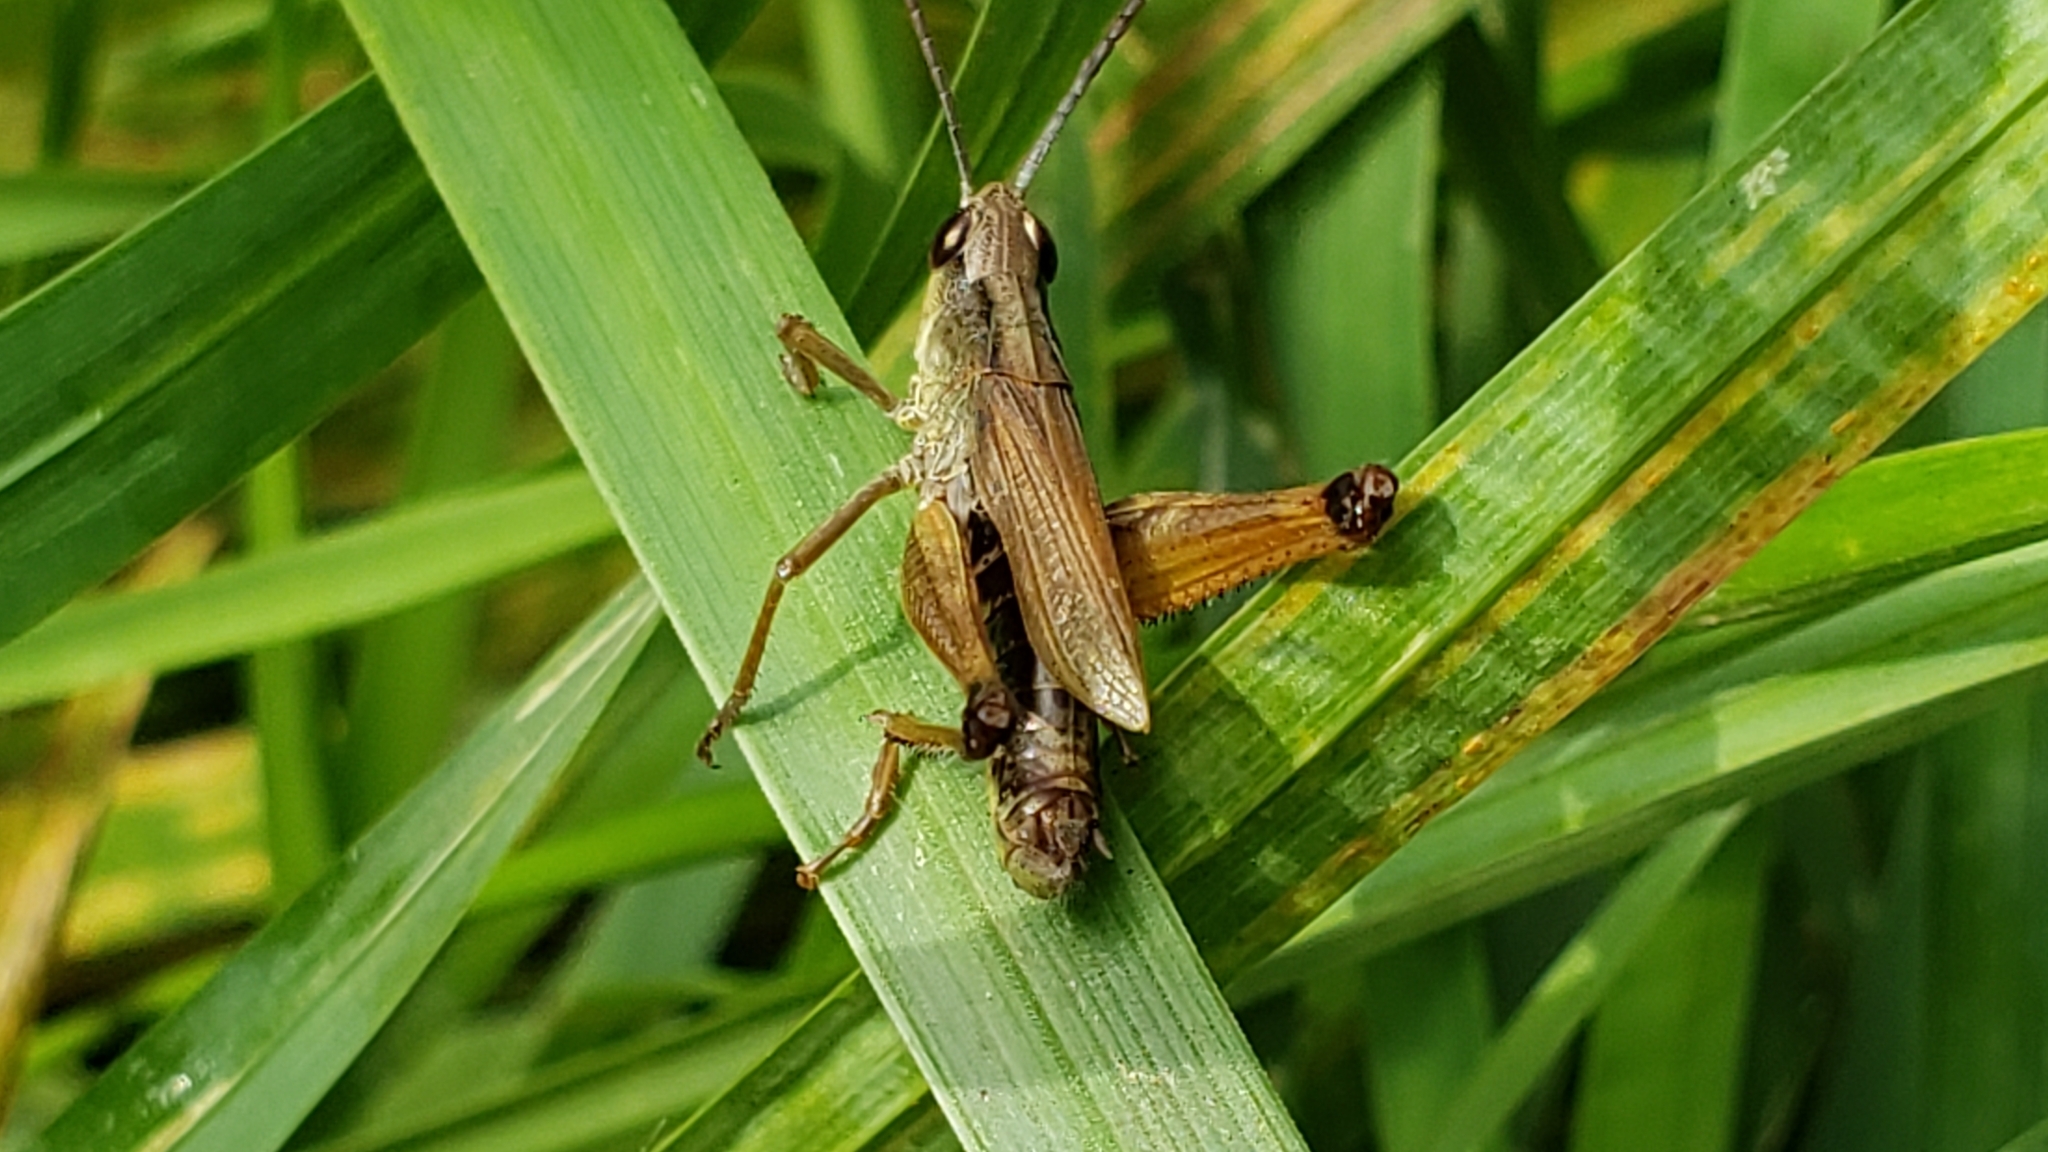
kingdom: Animalia
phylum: Arthropoda
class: Insecta
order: Orthoptera
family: Acrididae
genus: Pseudochorthippus
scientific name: Pseudochorthippus curtipennis
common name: Marsh meadow grasshopper
